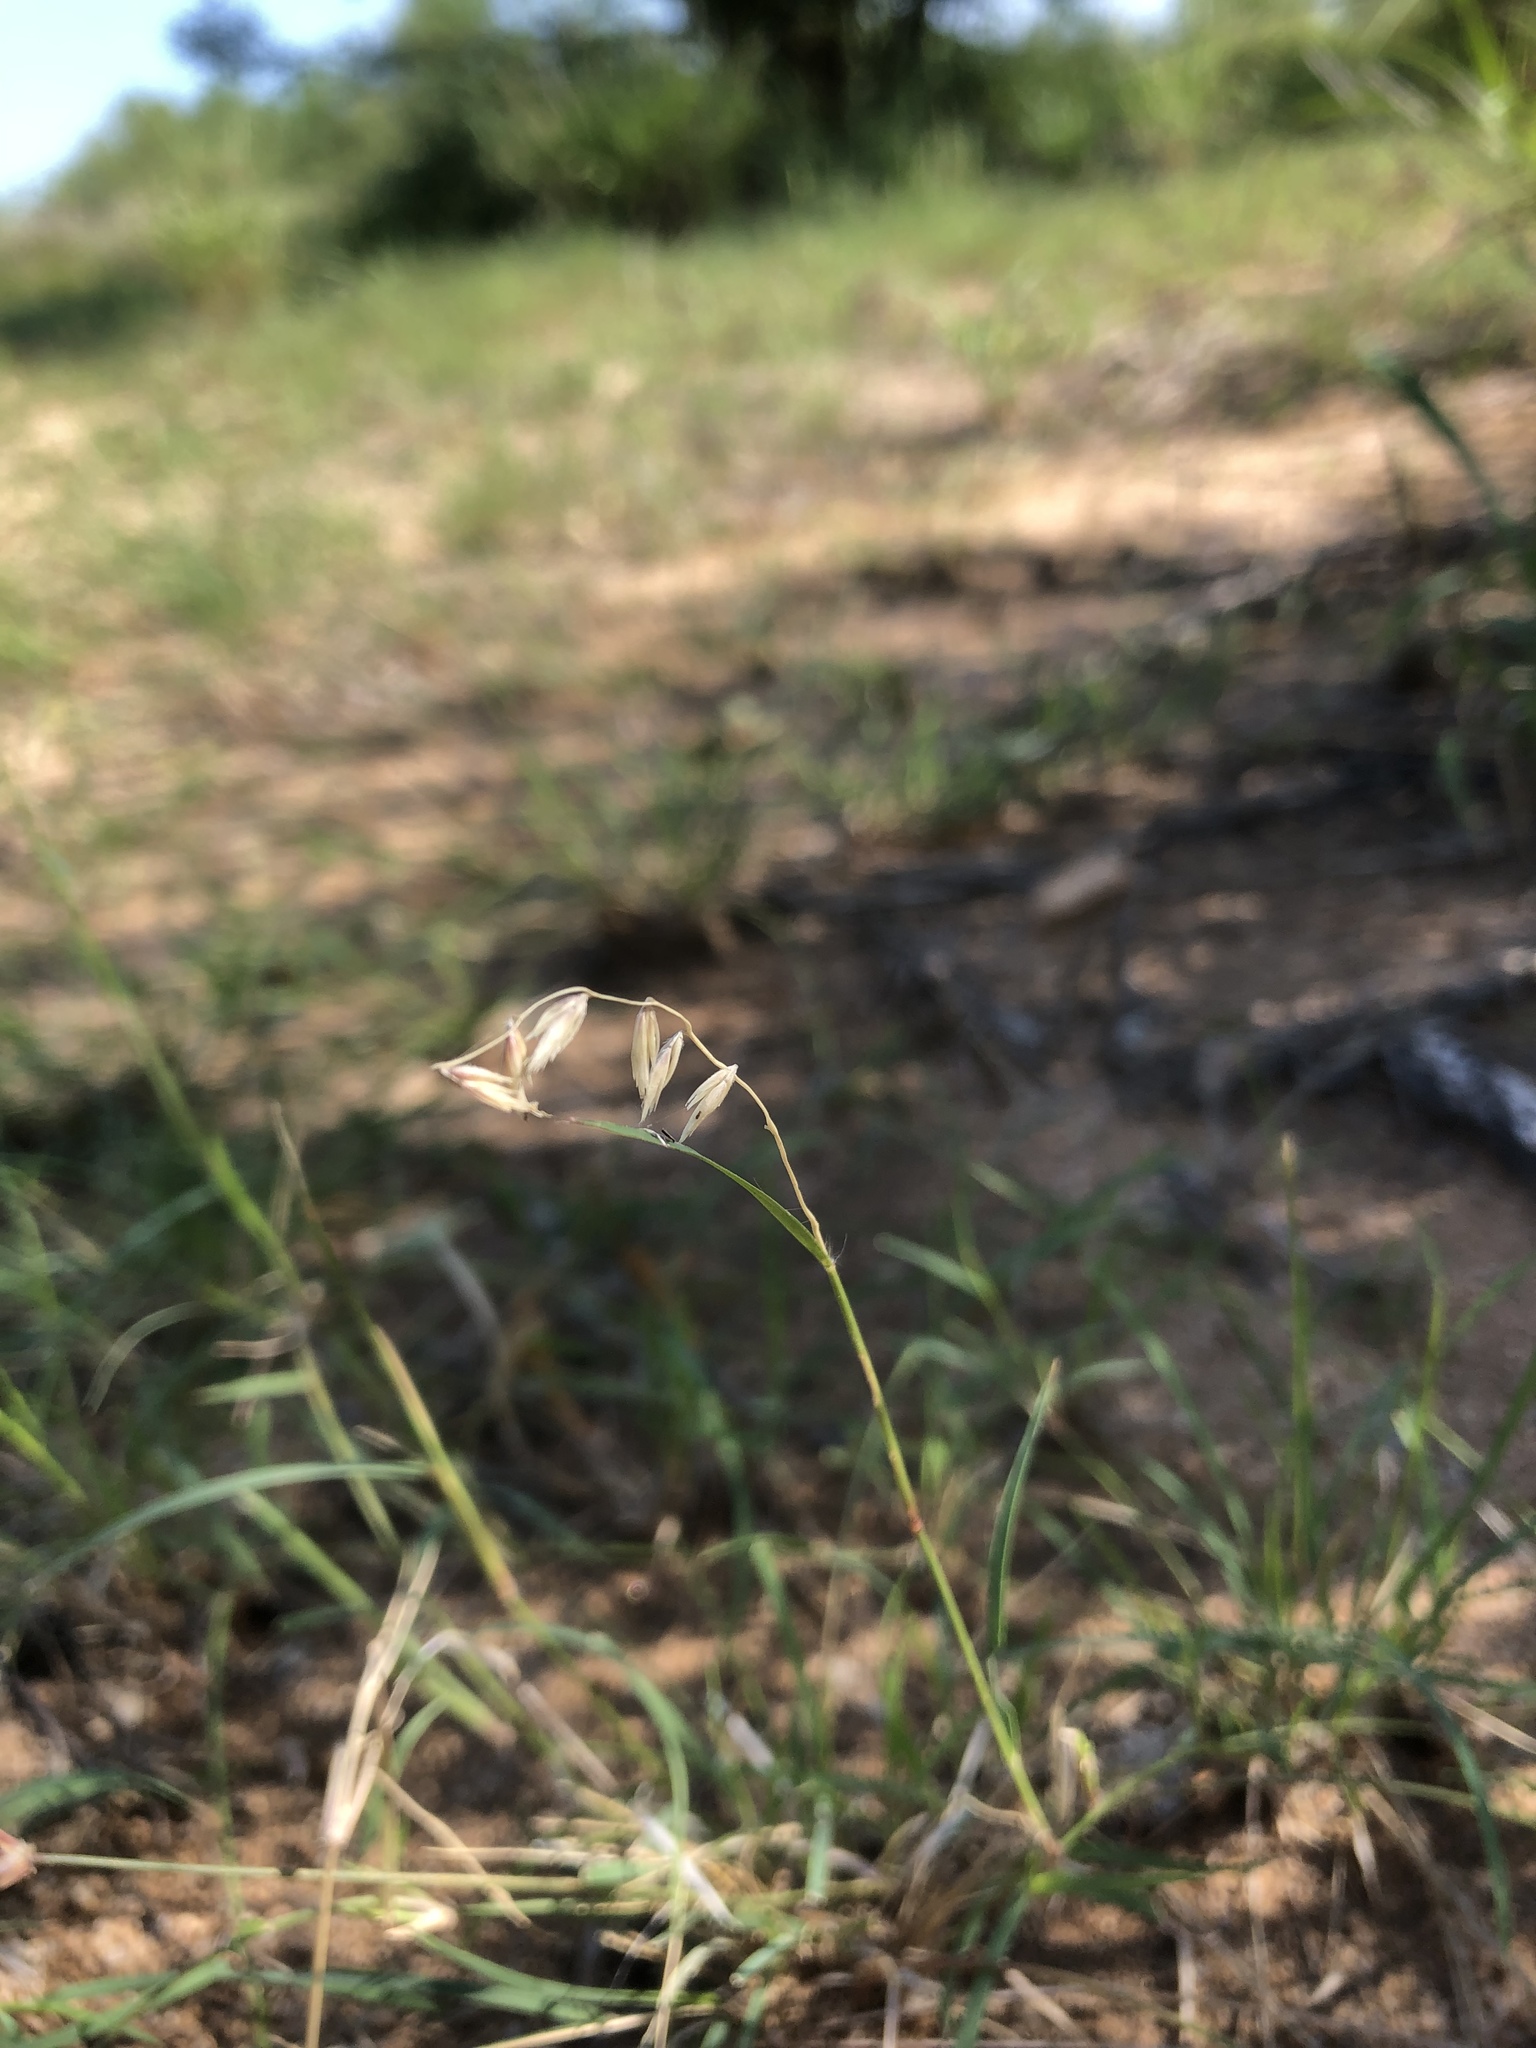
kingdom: Plantae
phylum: Tracheophyta
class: Liliopsida
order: Poales
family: Poaceae
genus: Bouteloua
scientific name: Bouteloua diversispicula
